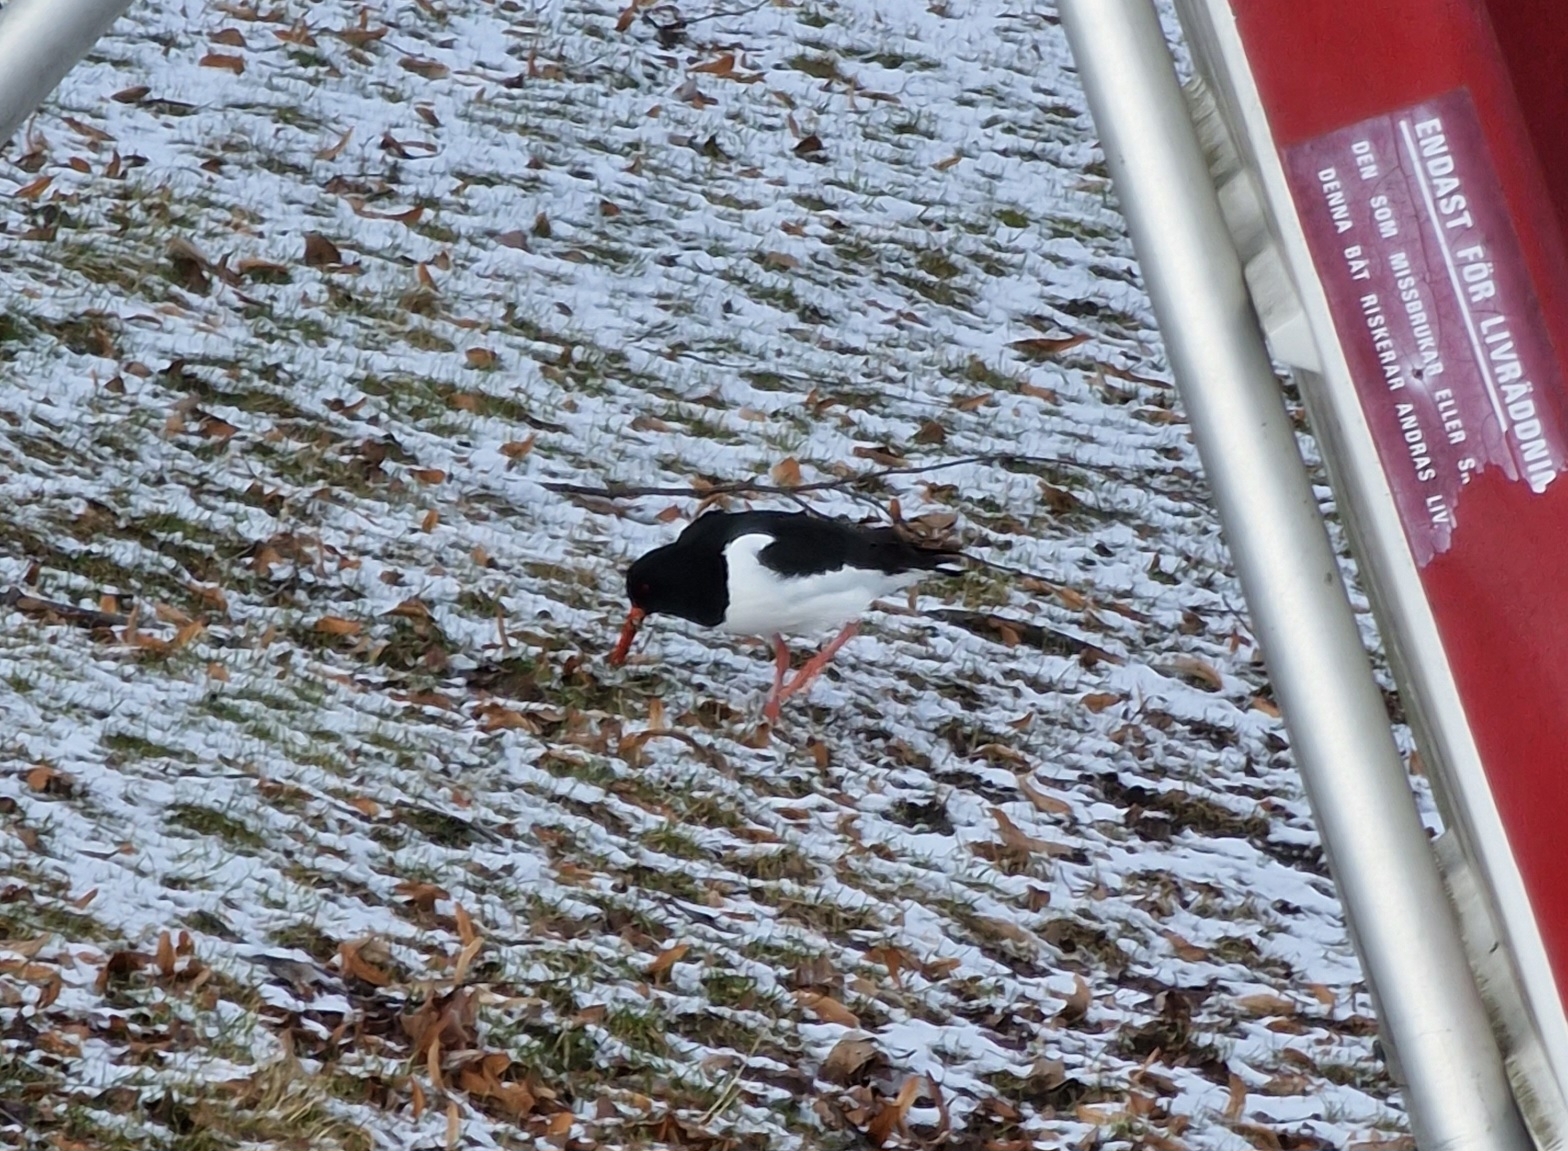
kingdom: Animalia
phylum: Chordata
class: Aves
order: Charadriiformes
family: Haematopodidae
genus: Haematopus
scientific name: Haematopus ostralegus
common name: Eurasian oystercatcher
